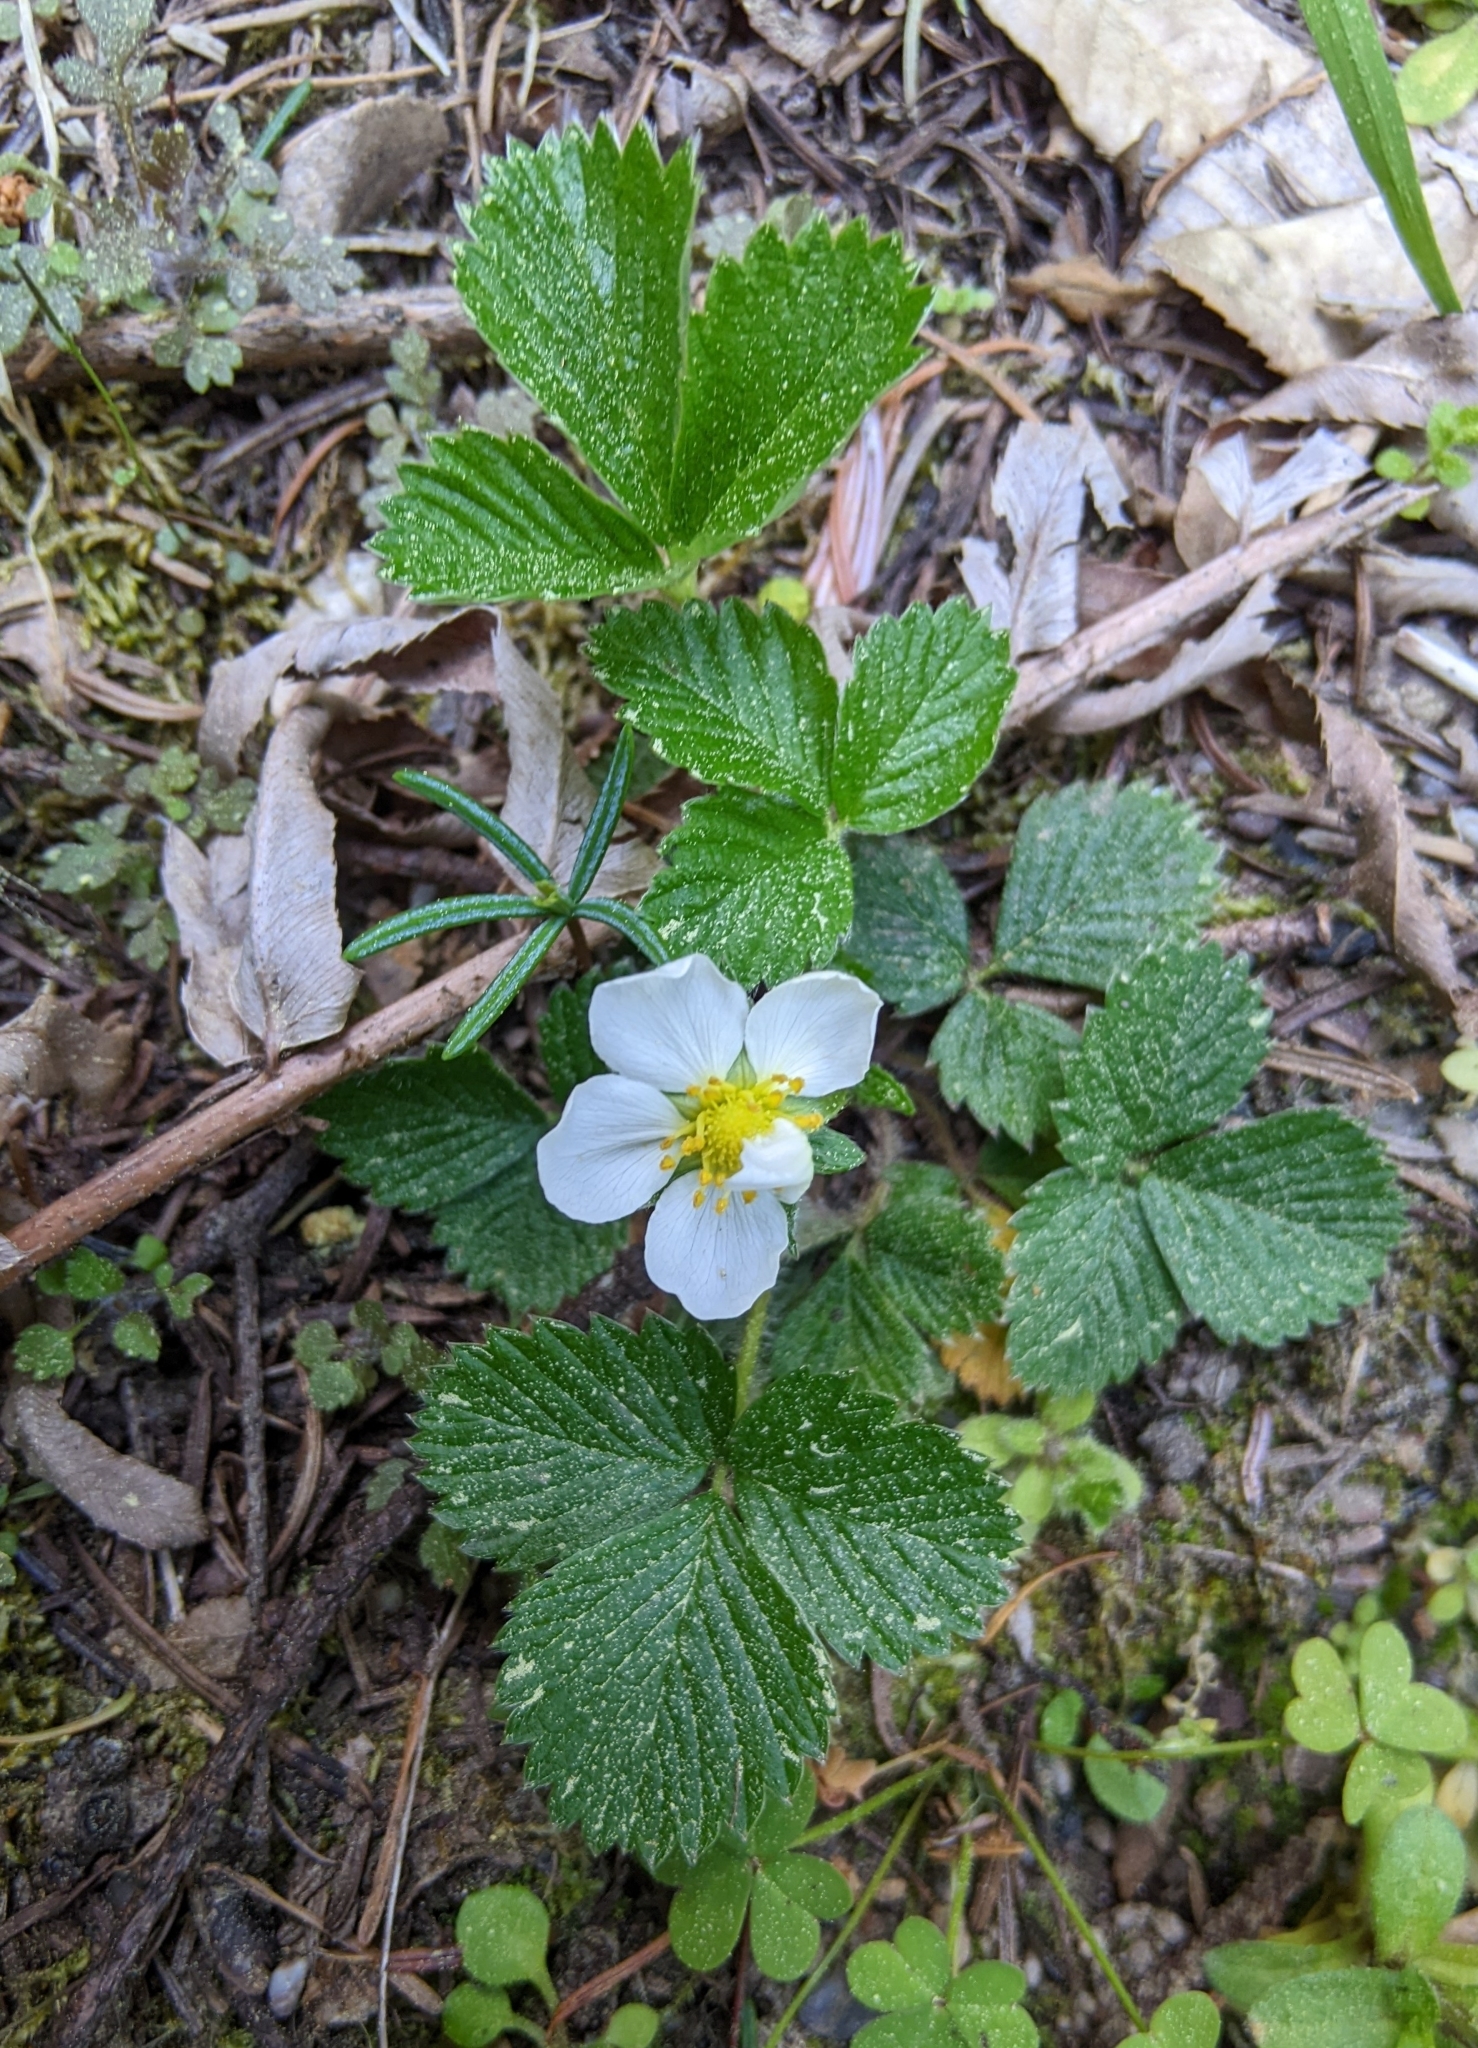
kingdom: Plantae
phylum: Tracheophyta
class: Magnoliopsida
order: Rosales
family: Rosaceae
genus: Fragaria
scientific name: Fragaria vesca
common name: Wild strawberry
